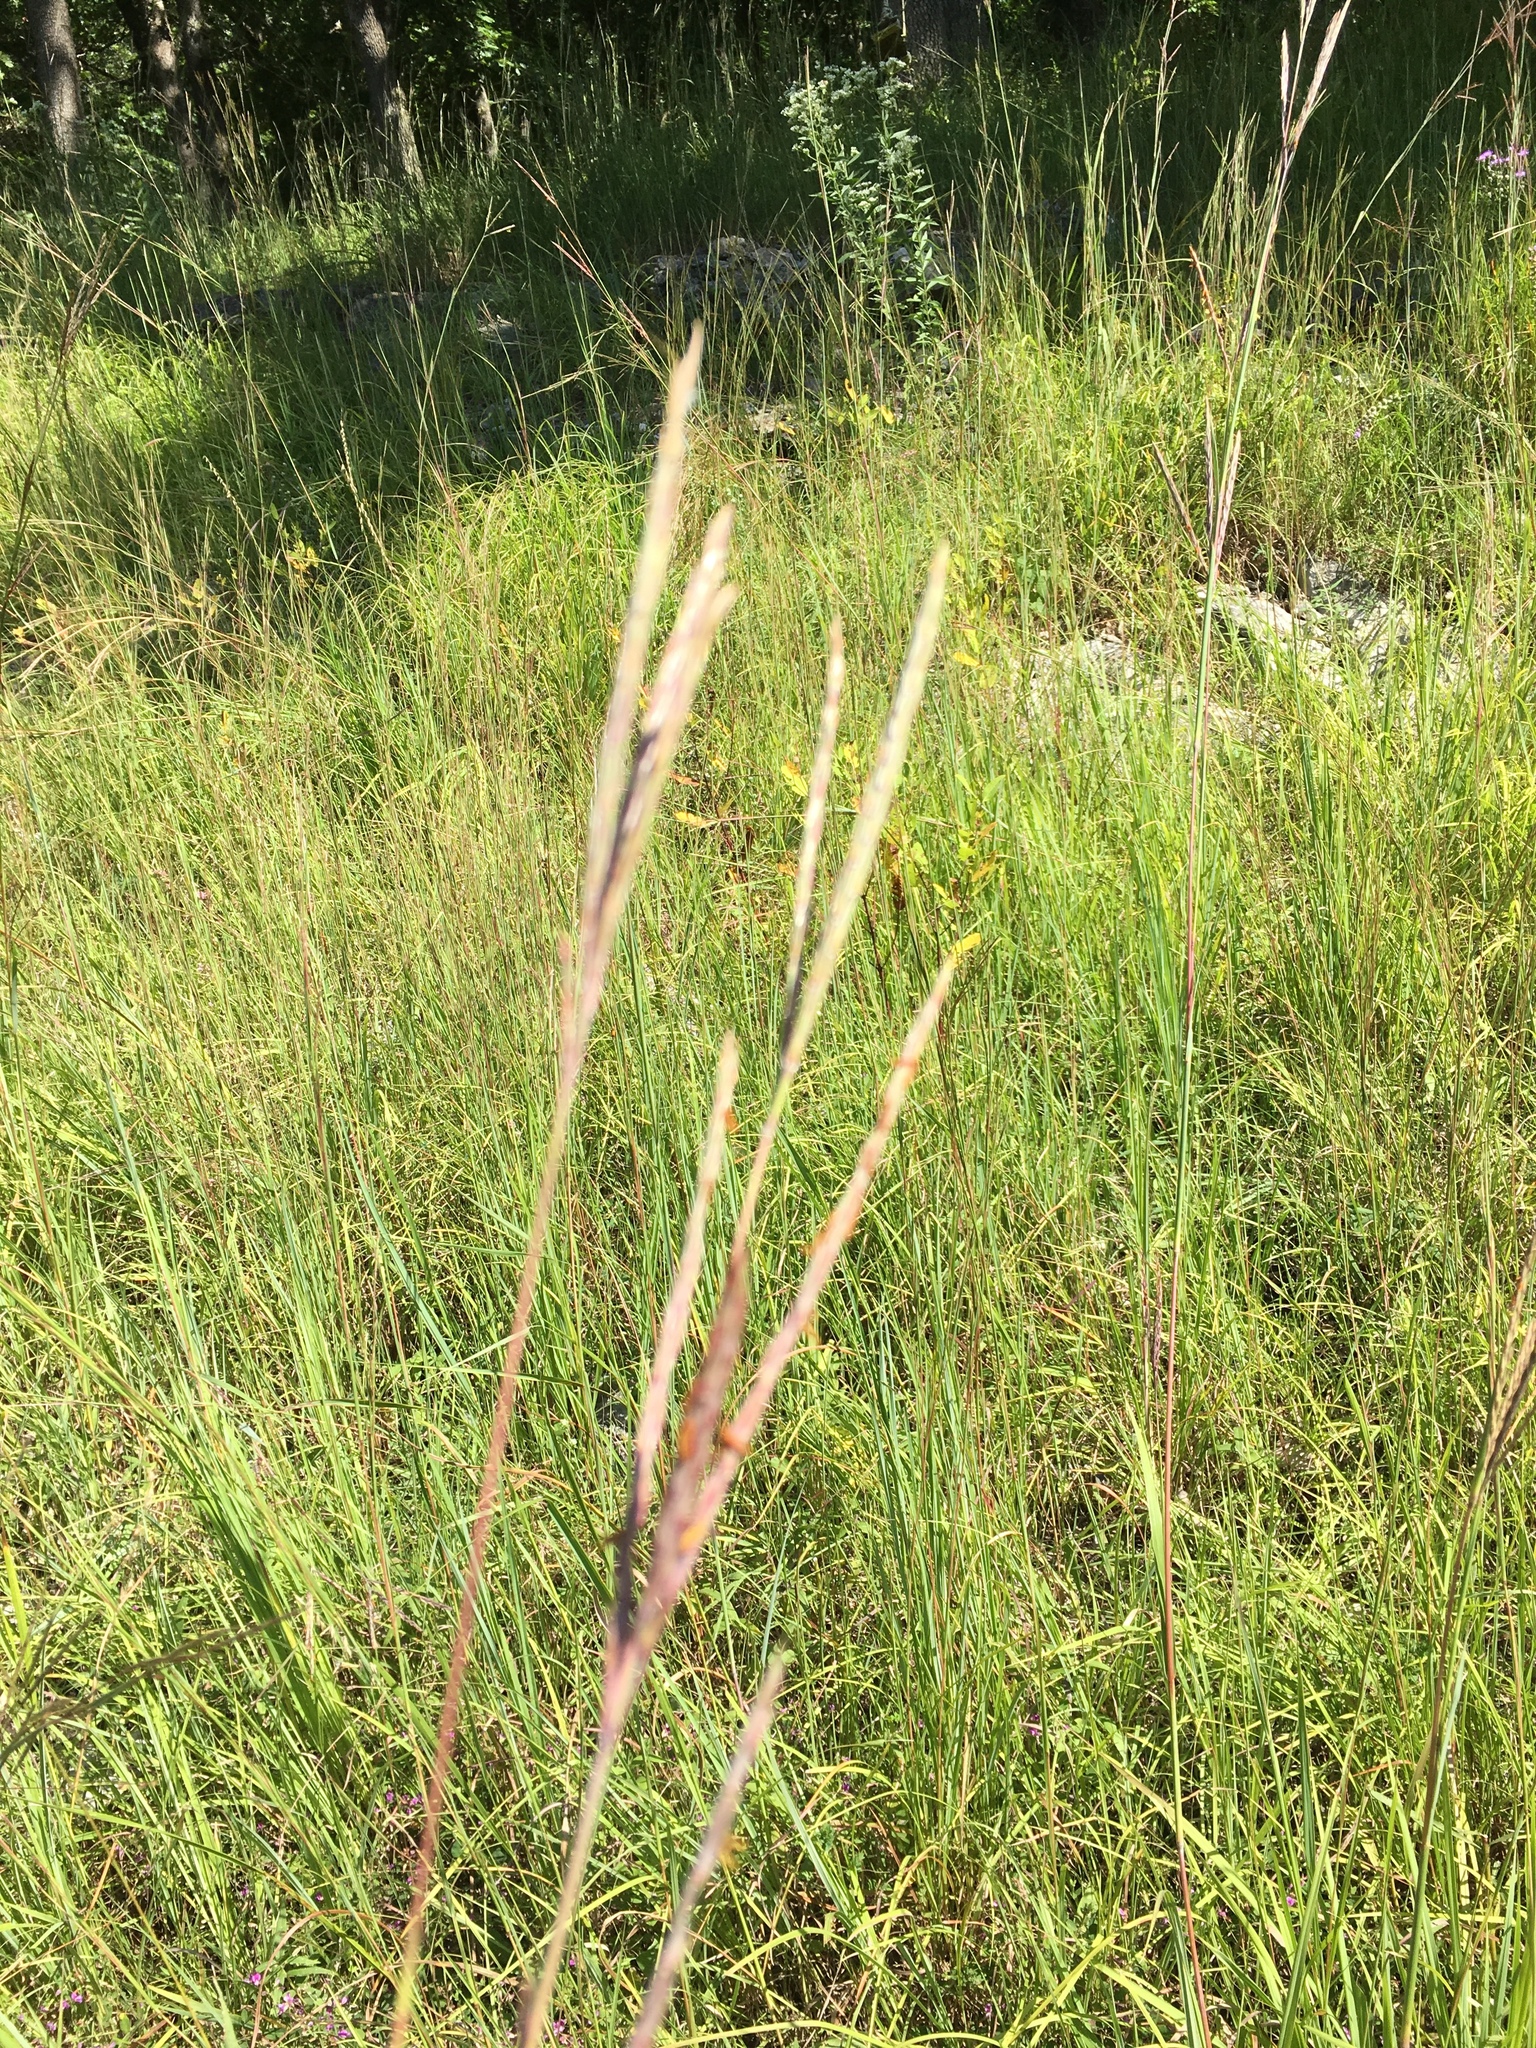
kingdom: Plantae
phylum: Tracheophyta
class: Liliopsida
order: Poales
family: Poaceae
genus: Andropogon
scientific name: Andropogon gerardi
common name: Big bluestem
